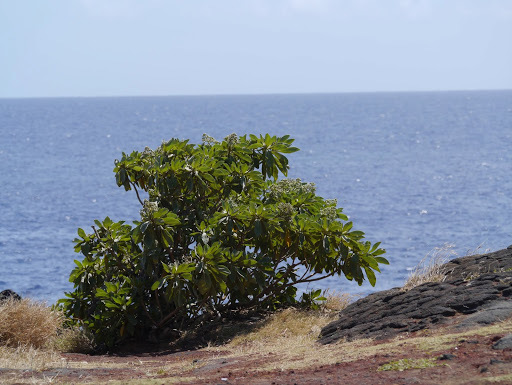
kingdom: Plantae
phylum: Tracheophyta
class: Magnoliopsida
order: Boraginales
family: Heliotropiaceae
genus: Heliotropium
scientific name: Heliotropium velutinum
